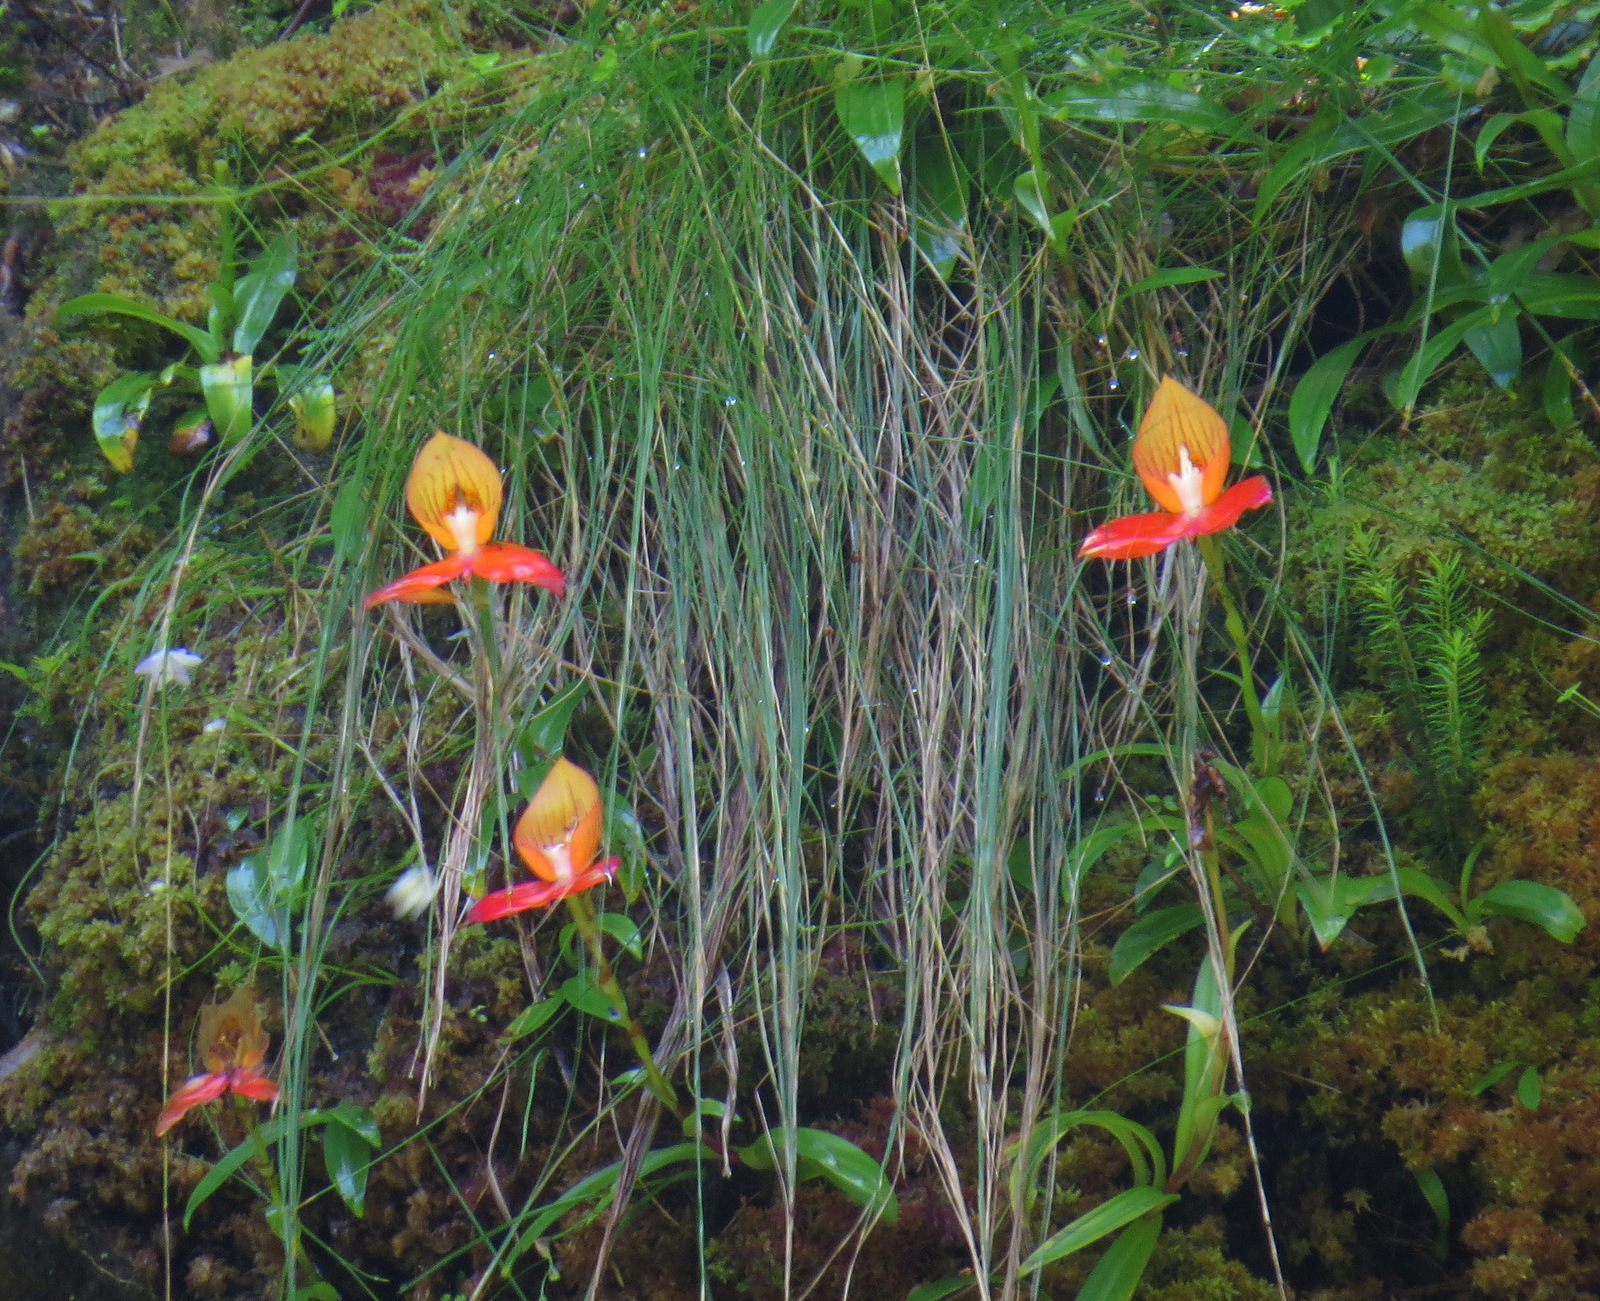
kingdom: Plantae
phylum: Tracheophyta
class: Liliopsida
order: Asparagales
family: Orchidaceae
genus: Disa
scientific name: Disa uniflora
